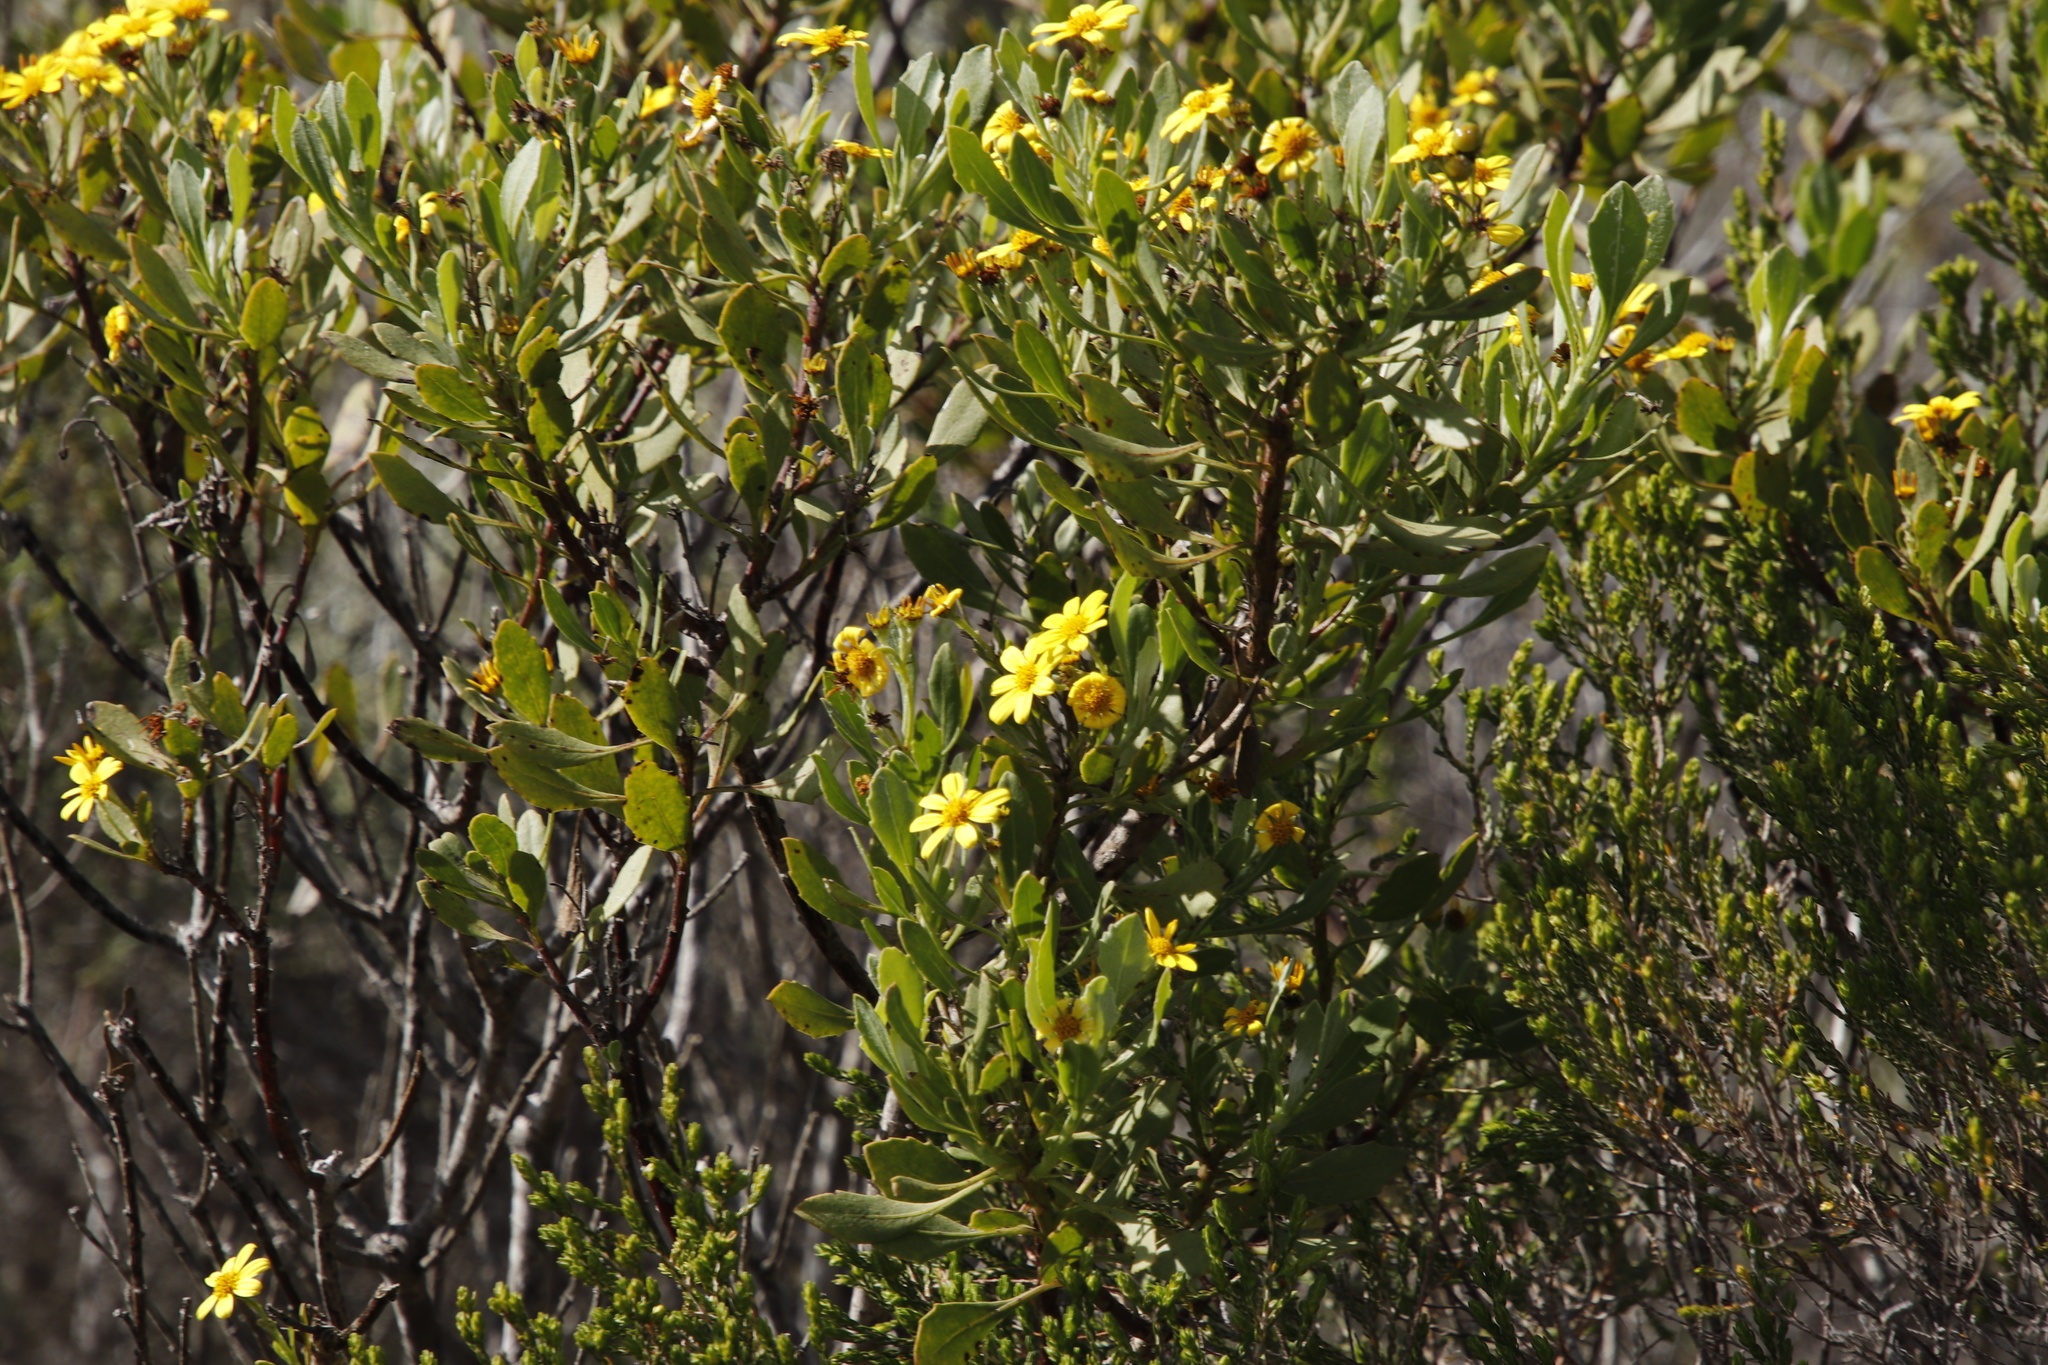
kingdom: Plantae
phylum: Tracheophyta
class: Magnoliopsida
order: Asterales
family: Asteraceae
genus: Osteospermum
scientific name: Osteospermum moniliferum
